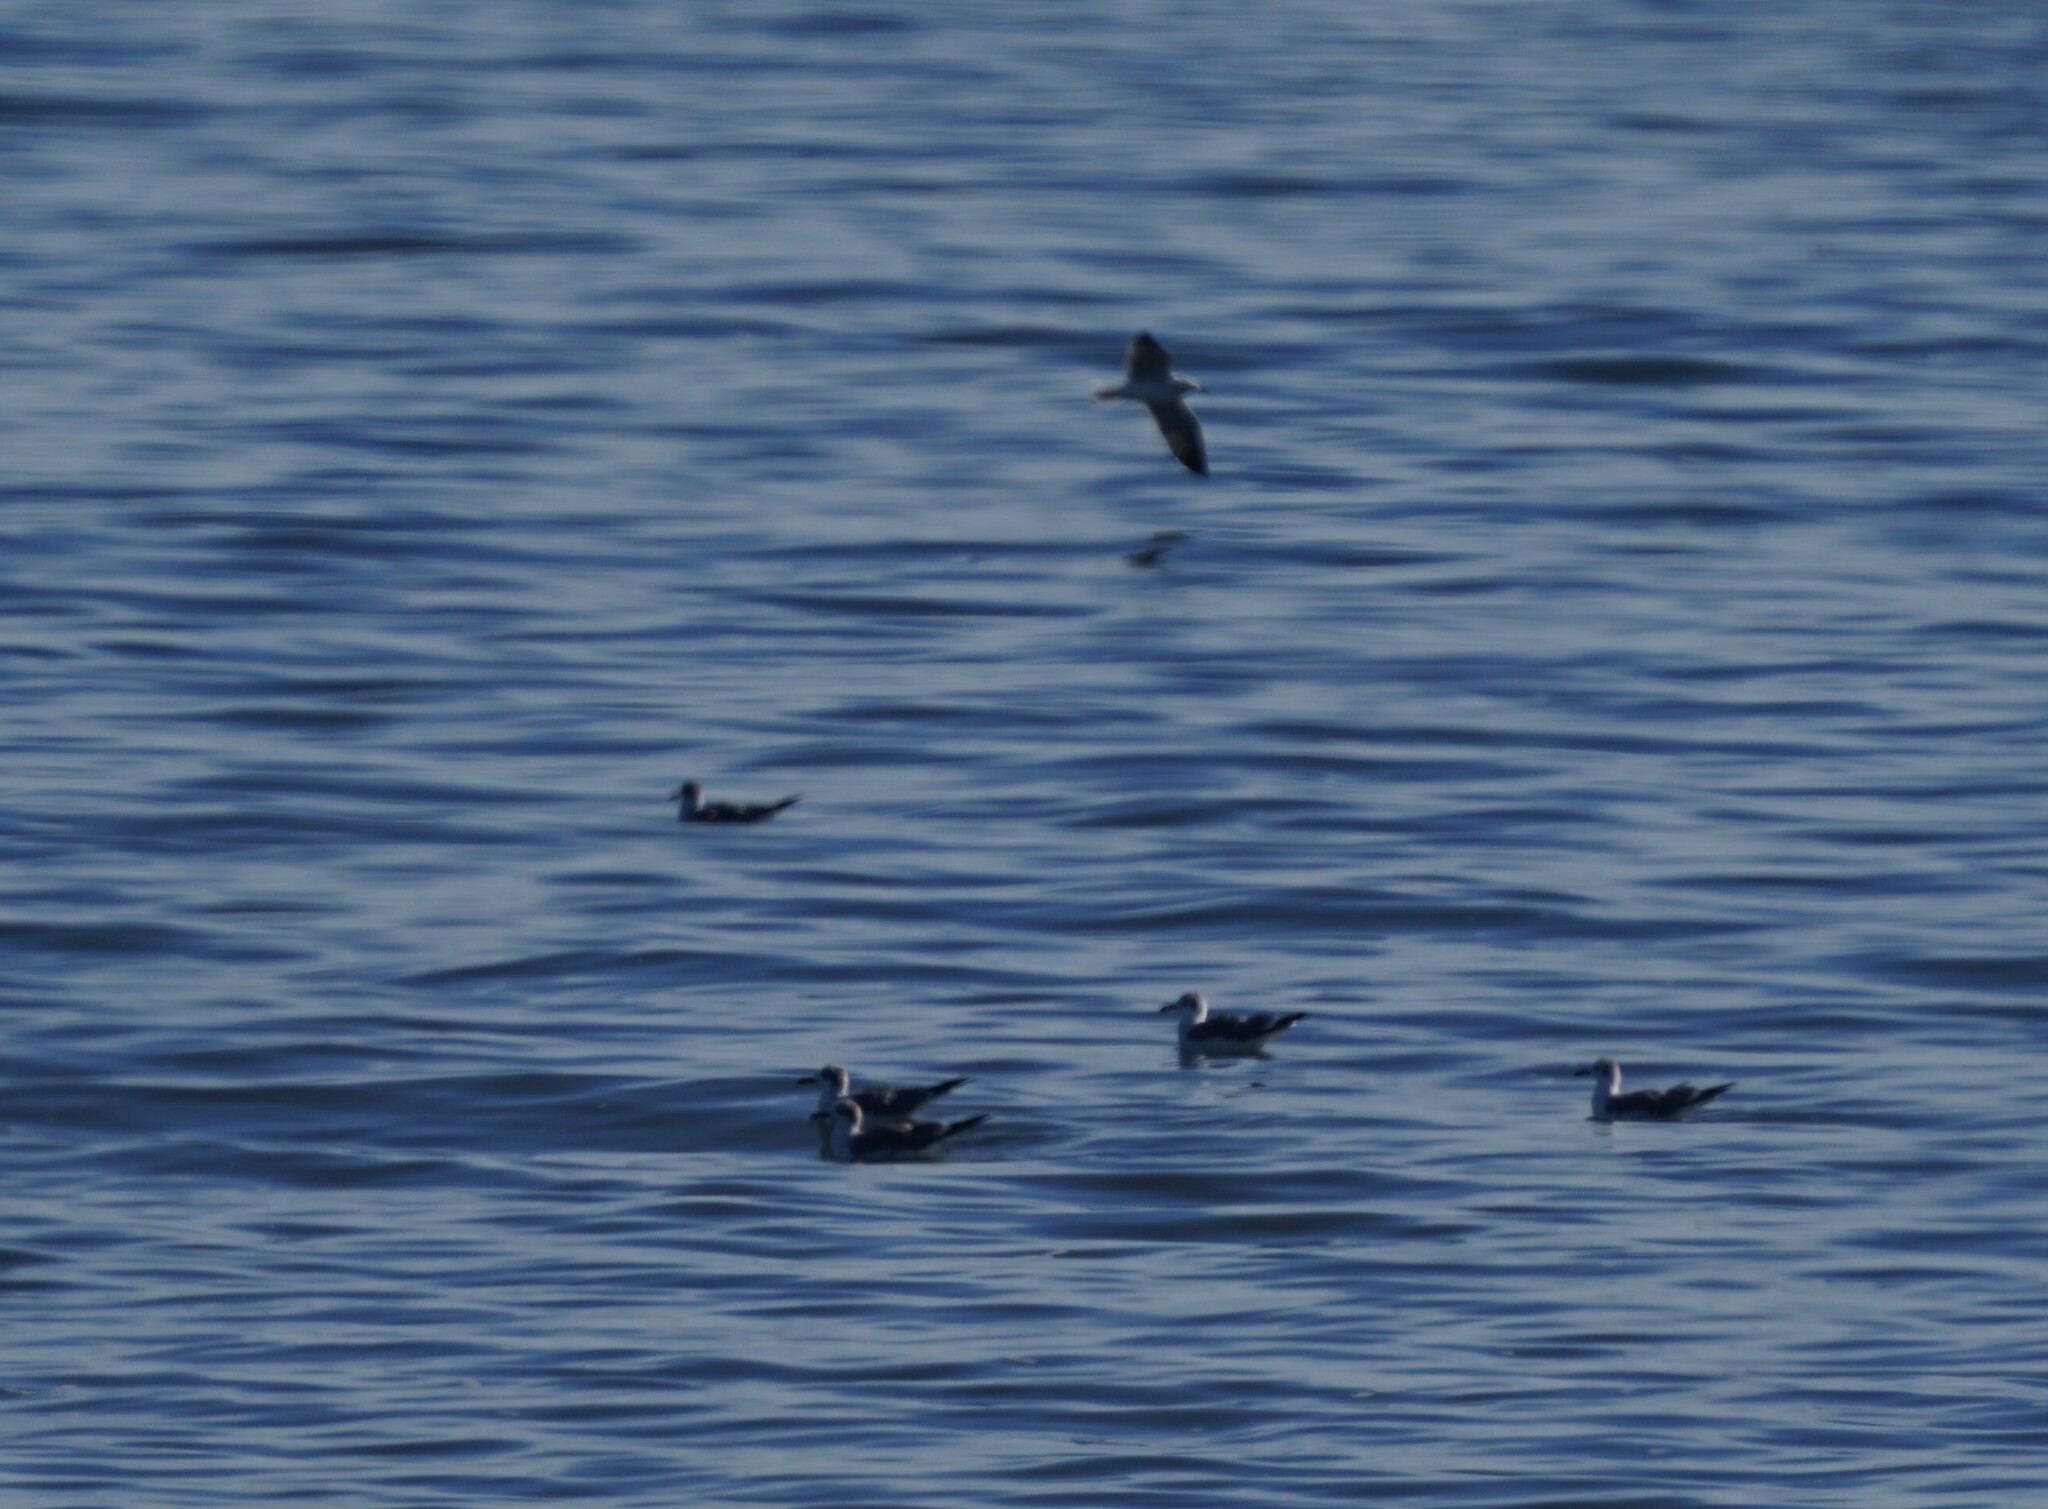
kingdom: Animalia
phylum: Chordata
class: Aves
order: Charadriiformes
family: Laridae
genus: Leucophaeus
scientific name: Leucophaeus atricilla
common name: Laughing gull
